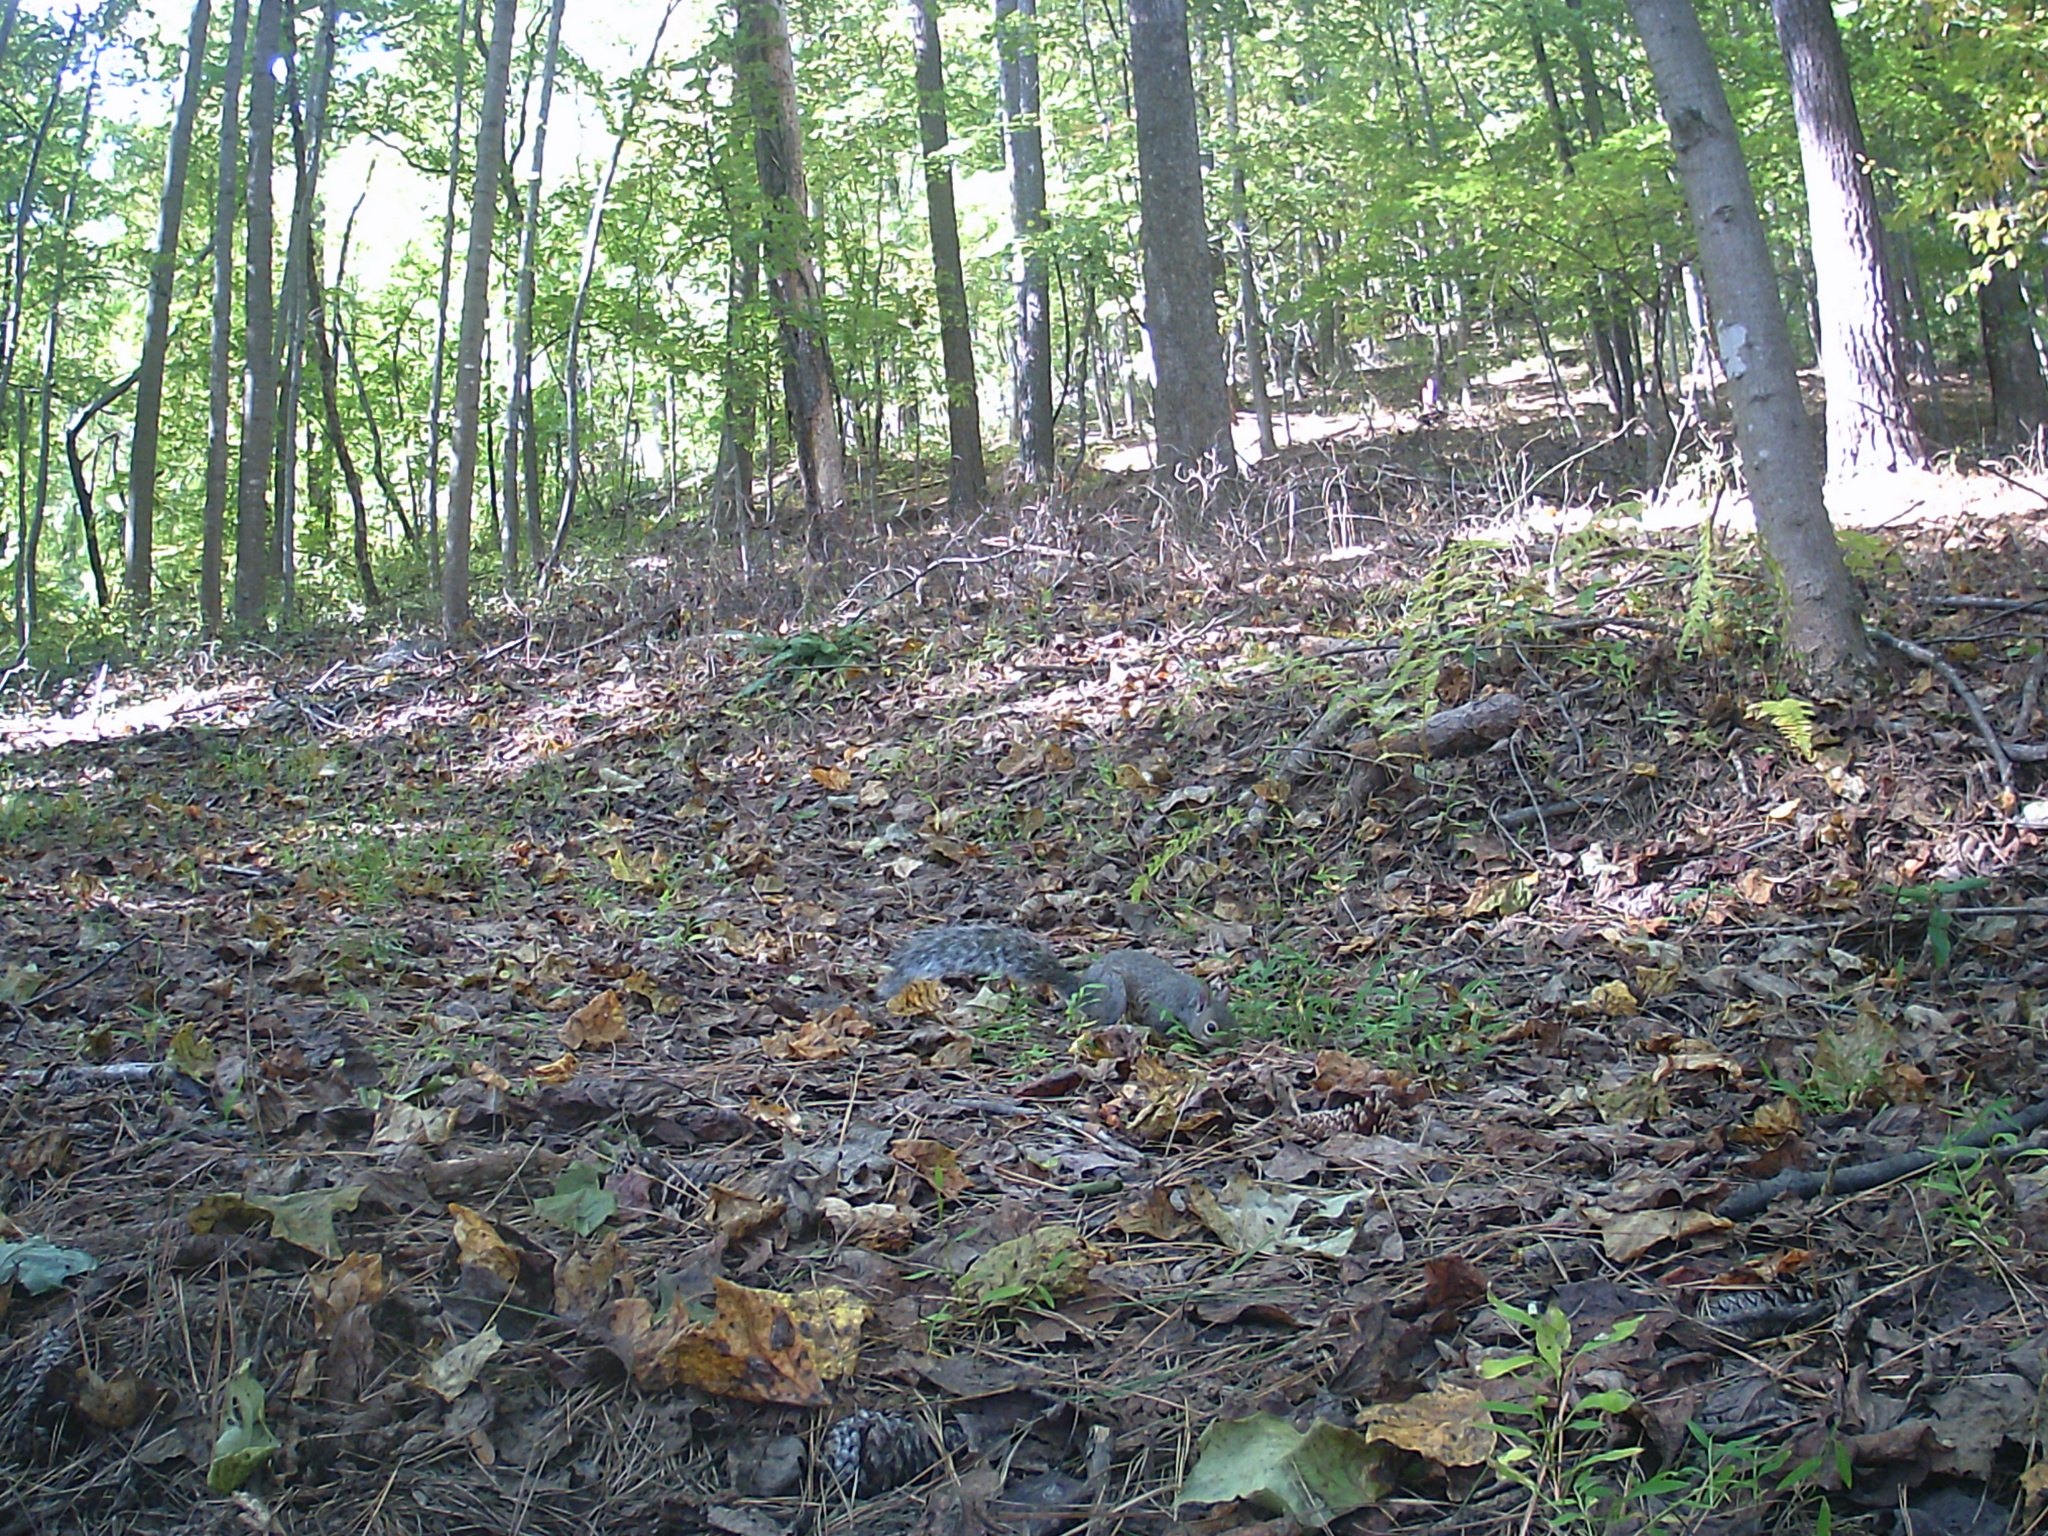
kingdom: Animalia
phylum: Chordata
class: Mammalia
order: Rodentia
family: Sciuridae
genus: Sciurus
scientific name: Sciurus carolinensis
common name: Eastern gray squirrel
